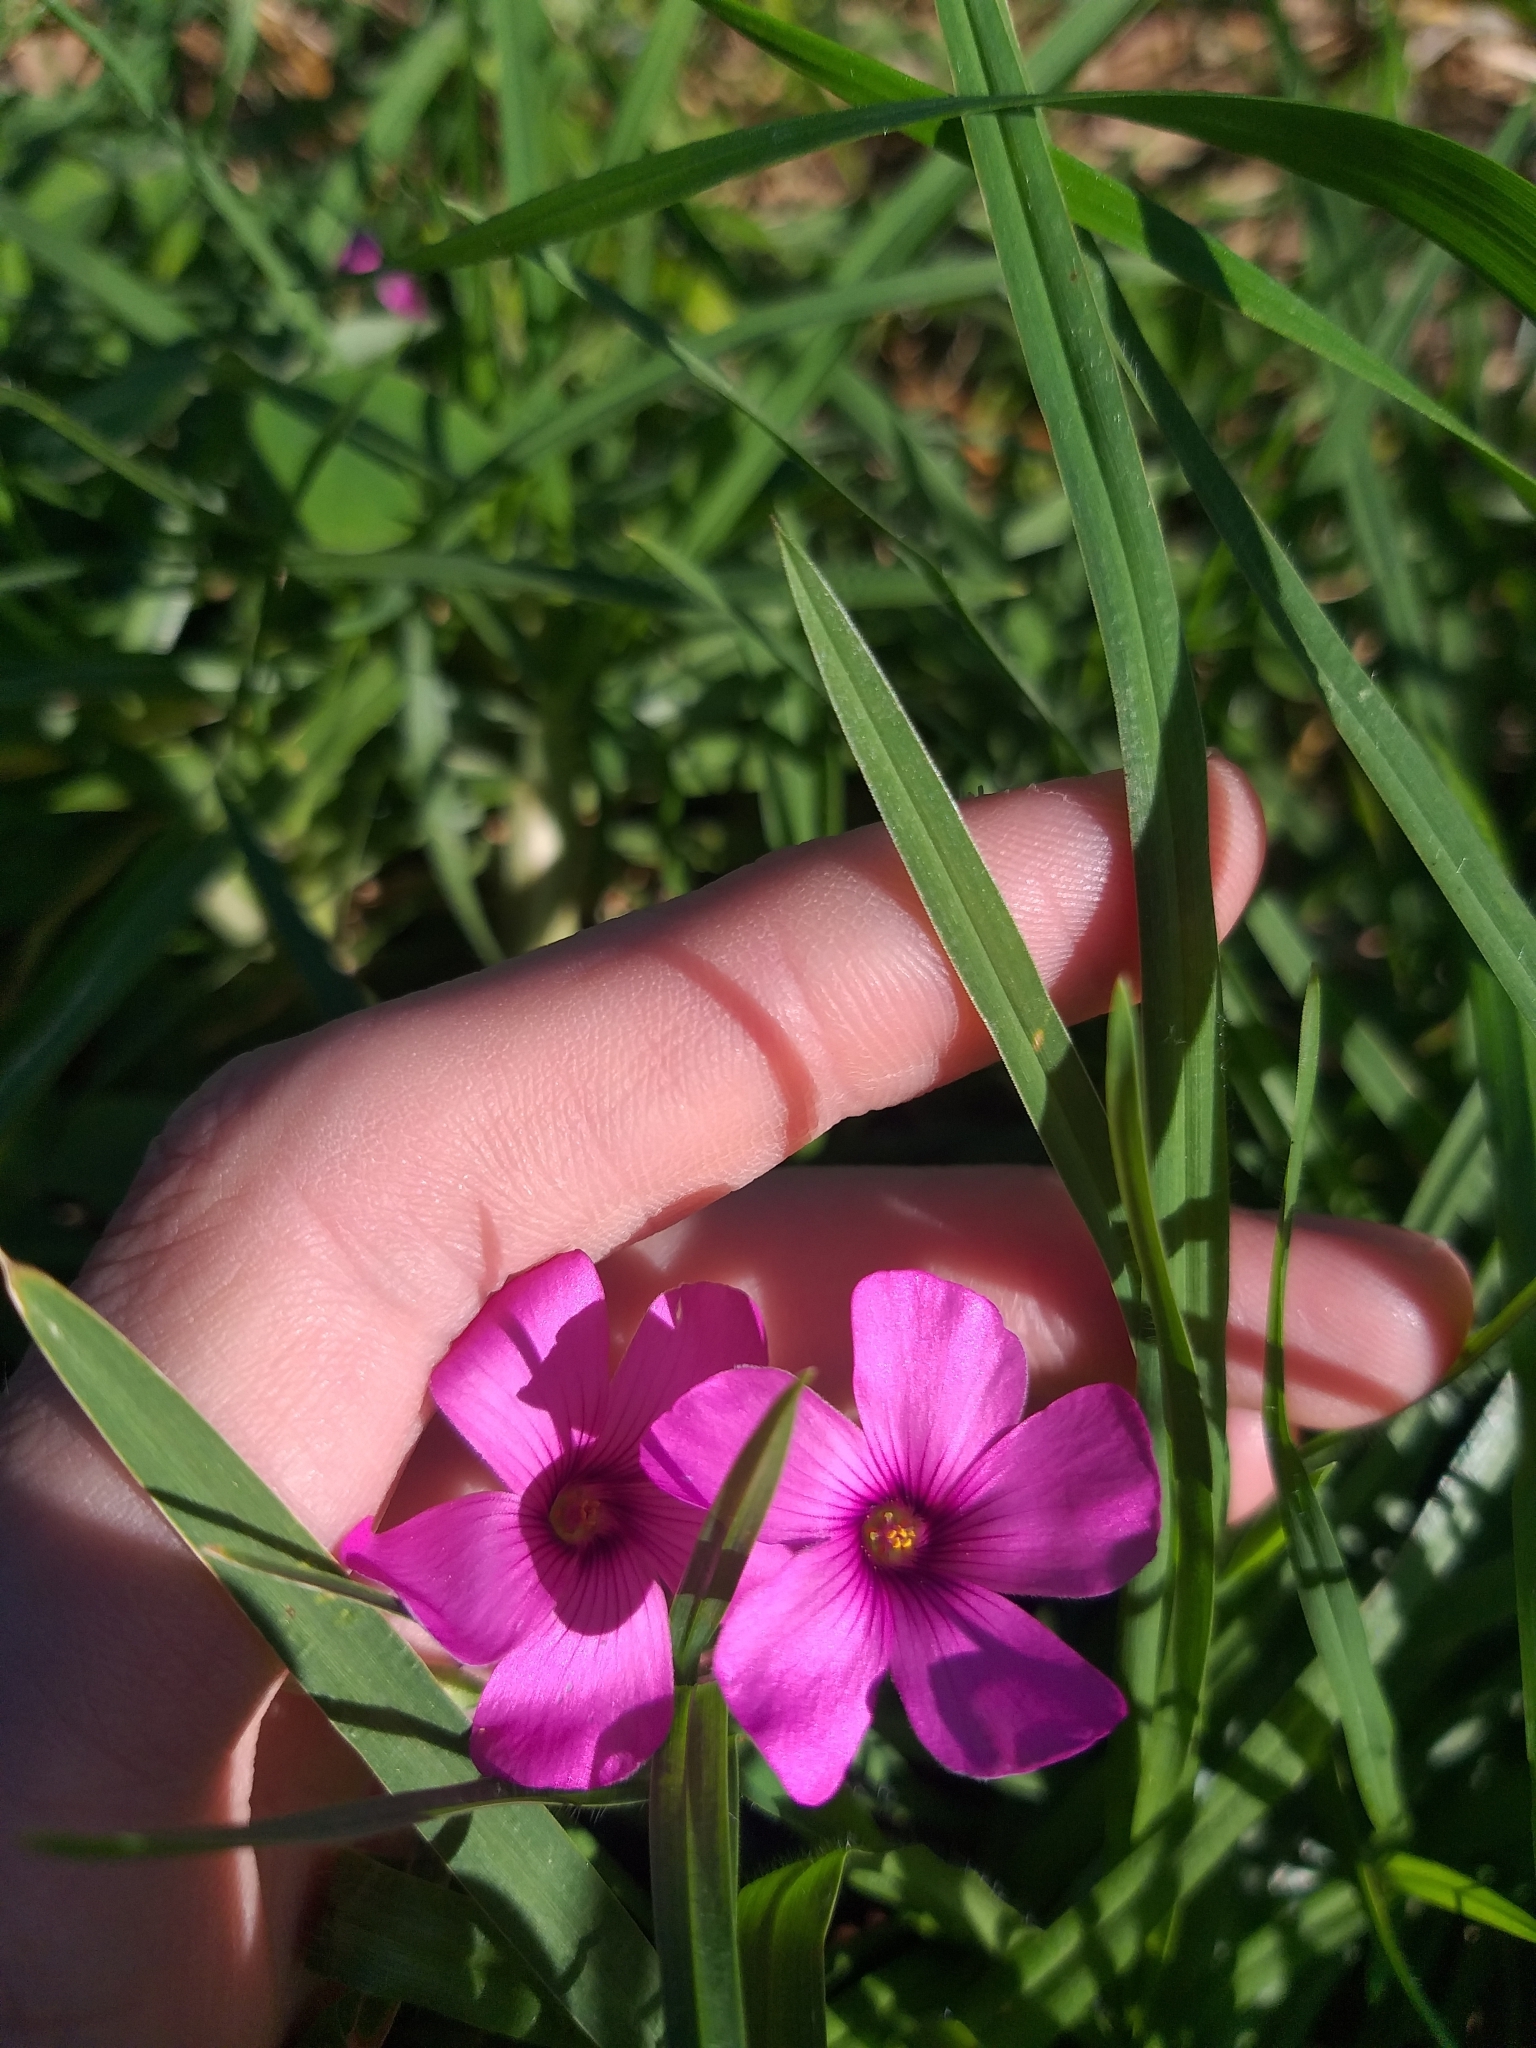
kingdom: Plantae
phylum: Tracheophyta
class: Magnoliopsida
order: Oxalidales
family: Oxalidaceae
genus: Oxalis
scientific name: Oxalis articulata
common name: Pink-sorrel
